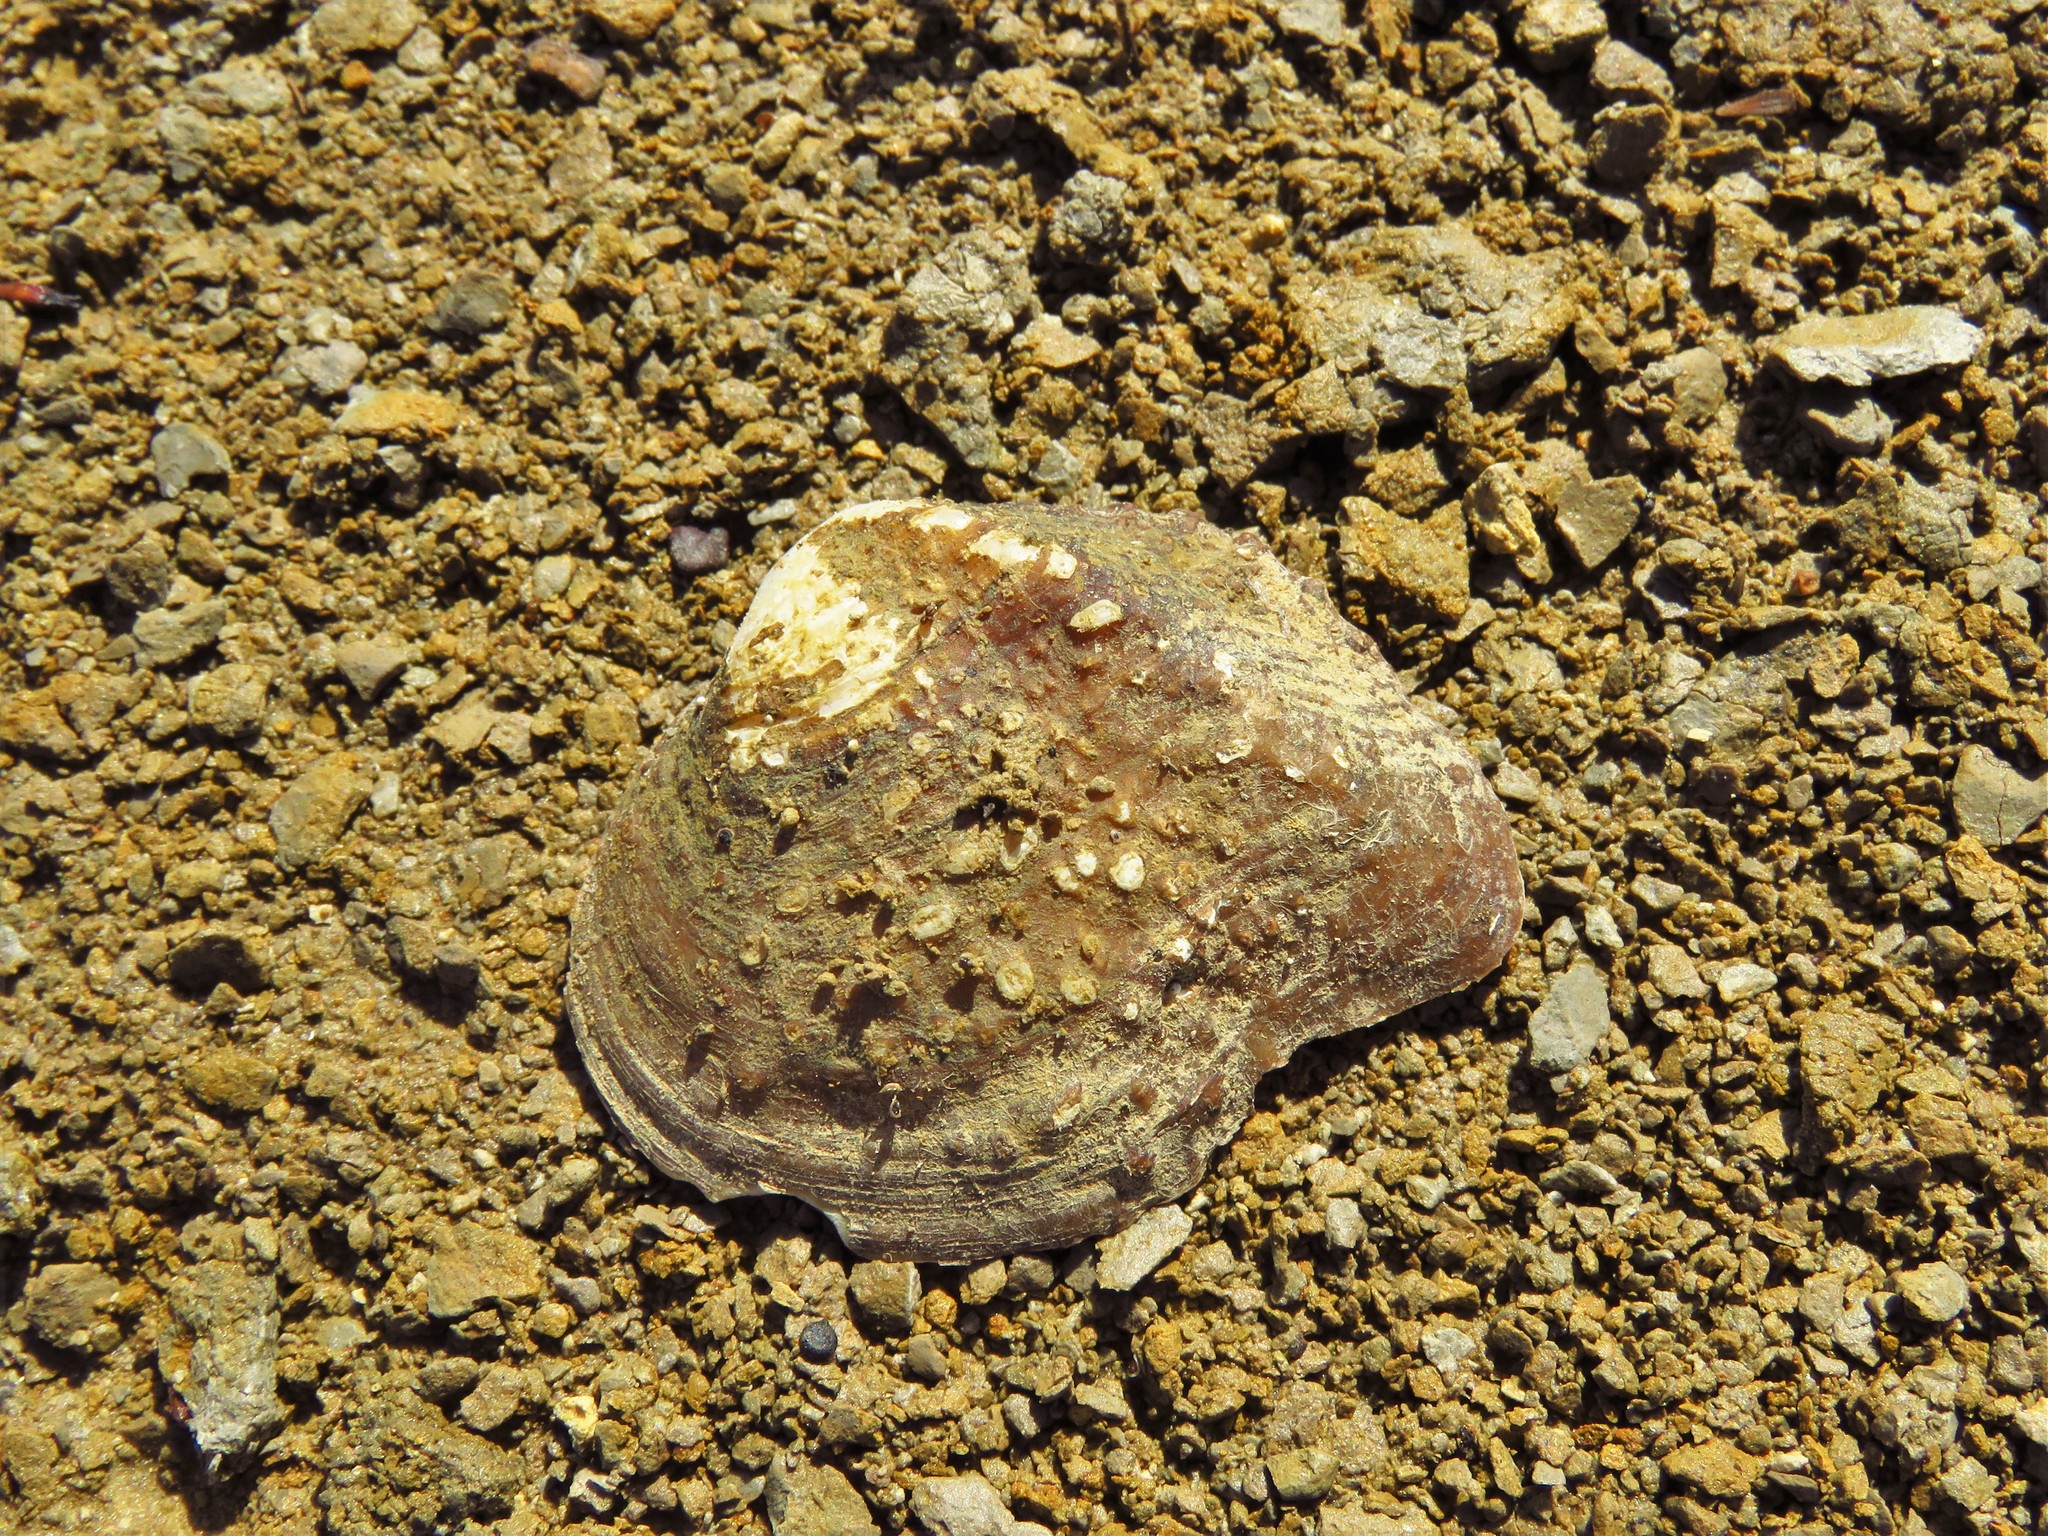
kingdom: Animalia
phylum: Mollusca
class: Bivalvia
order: Unionida
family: Unionidae
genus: Quadrula
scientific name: Quadrula quadrula
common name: Mapleleaf
